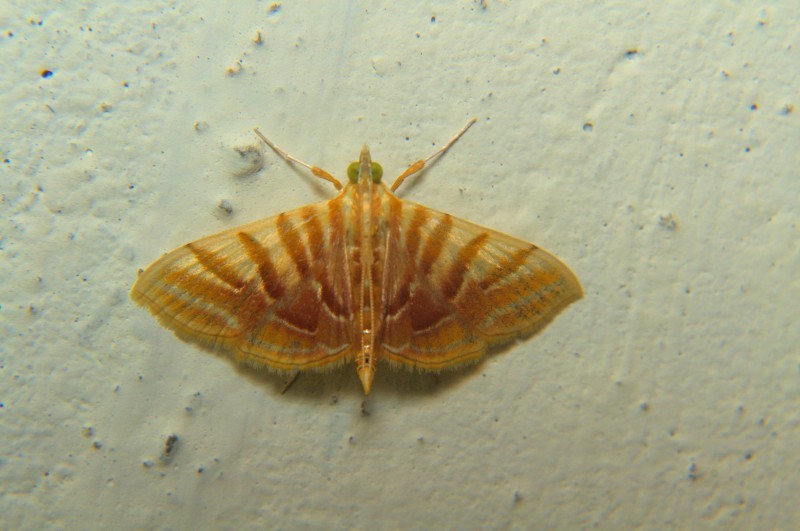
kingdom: Animalia
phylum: Arthropoda
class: Insecta
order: Lepidoptera
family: Crambidae
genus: Pagyda
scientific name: Pagyda auroralis
